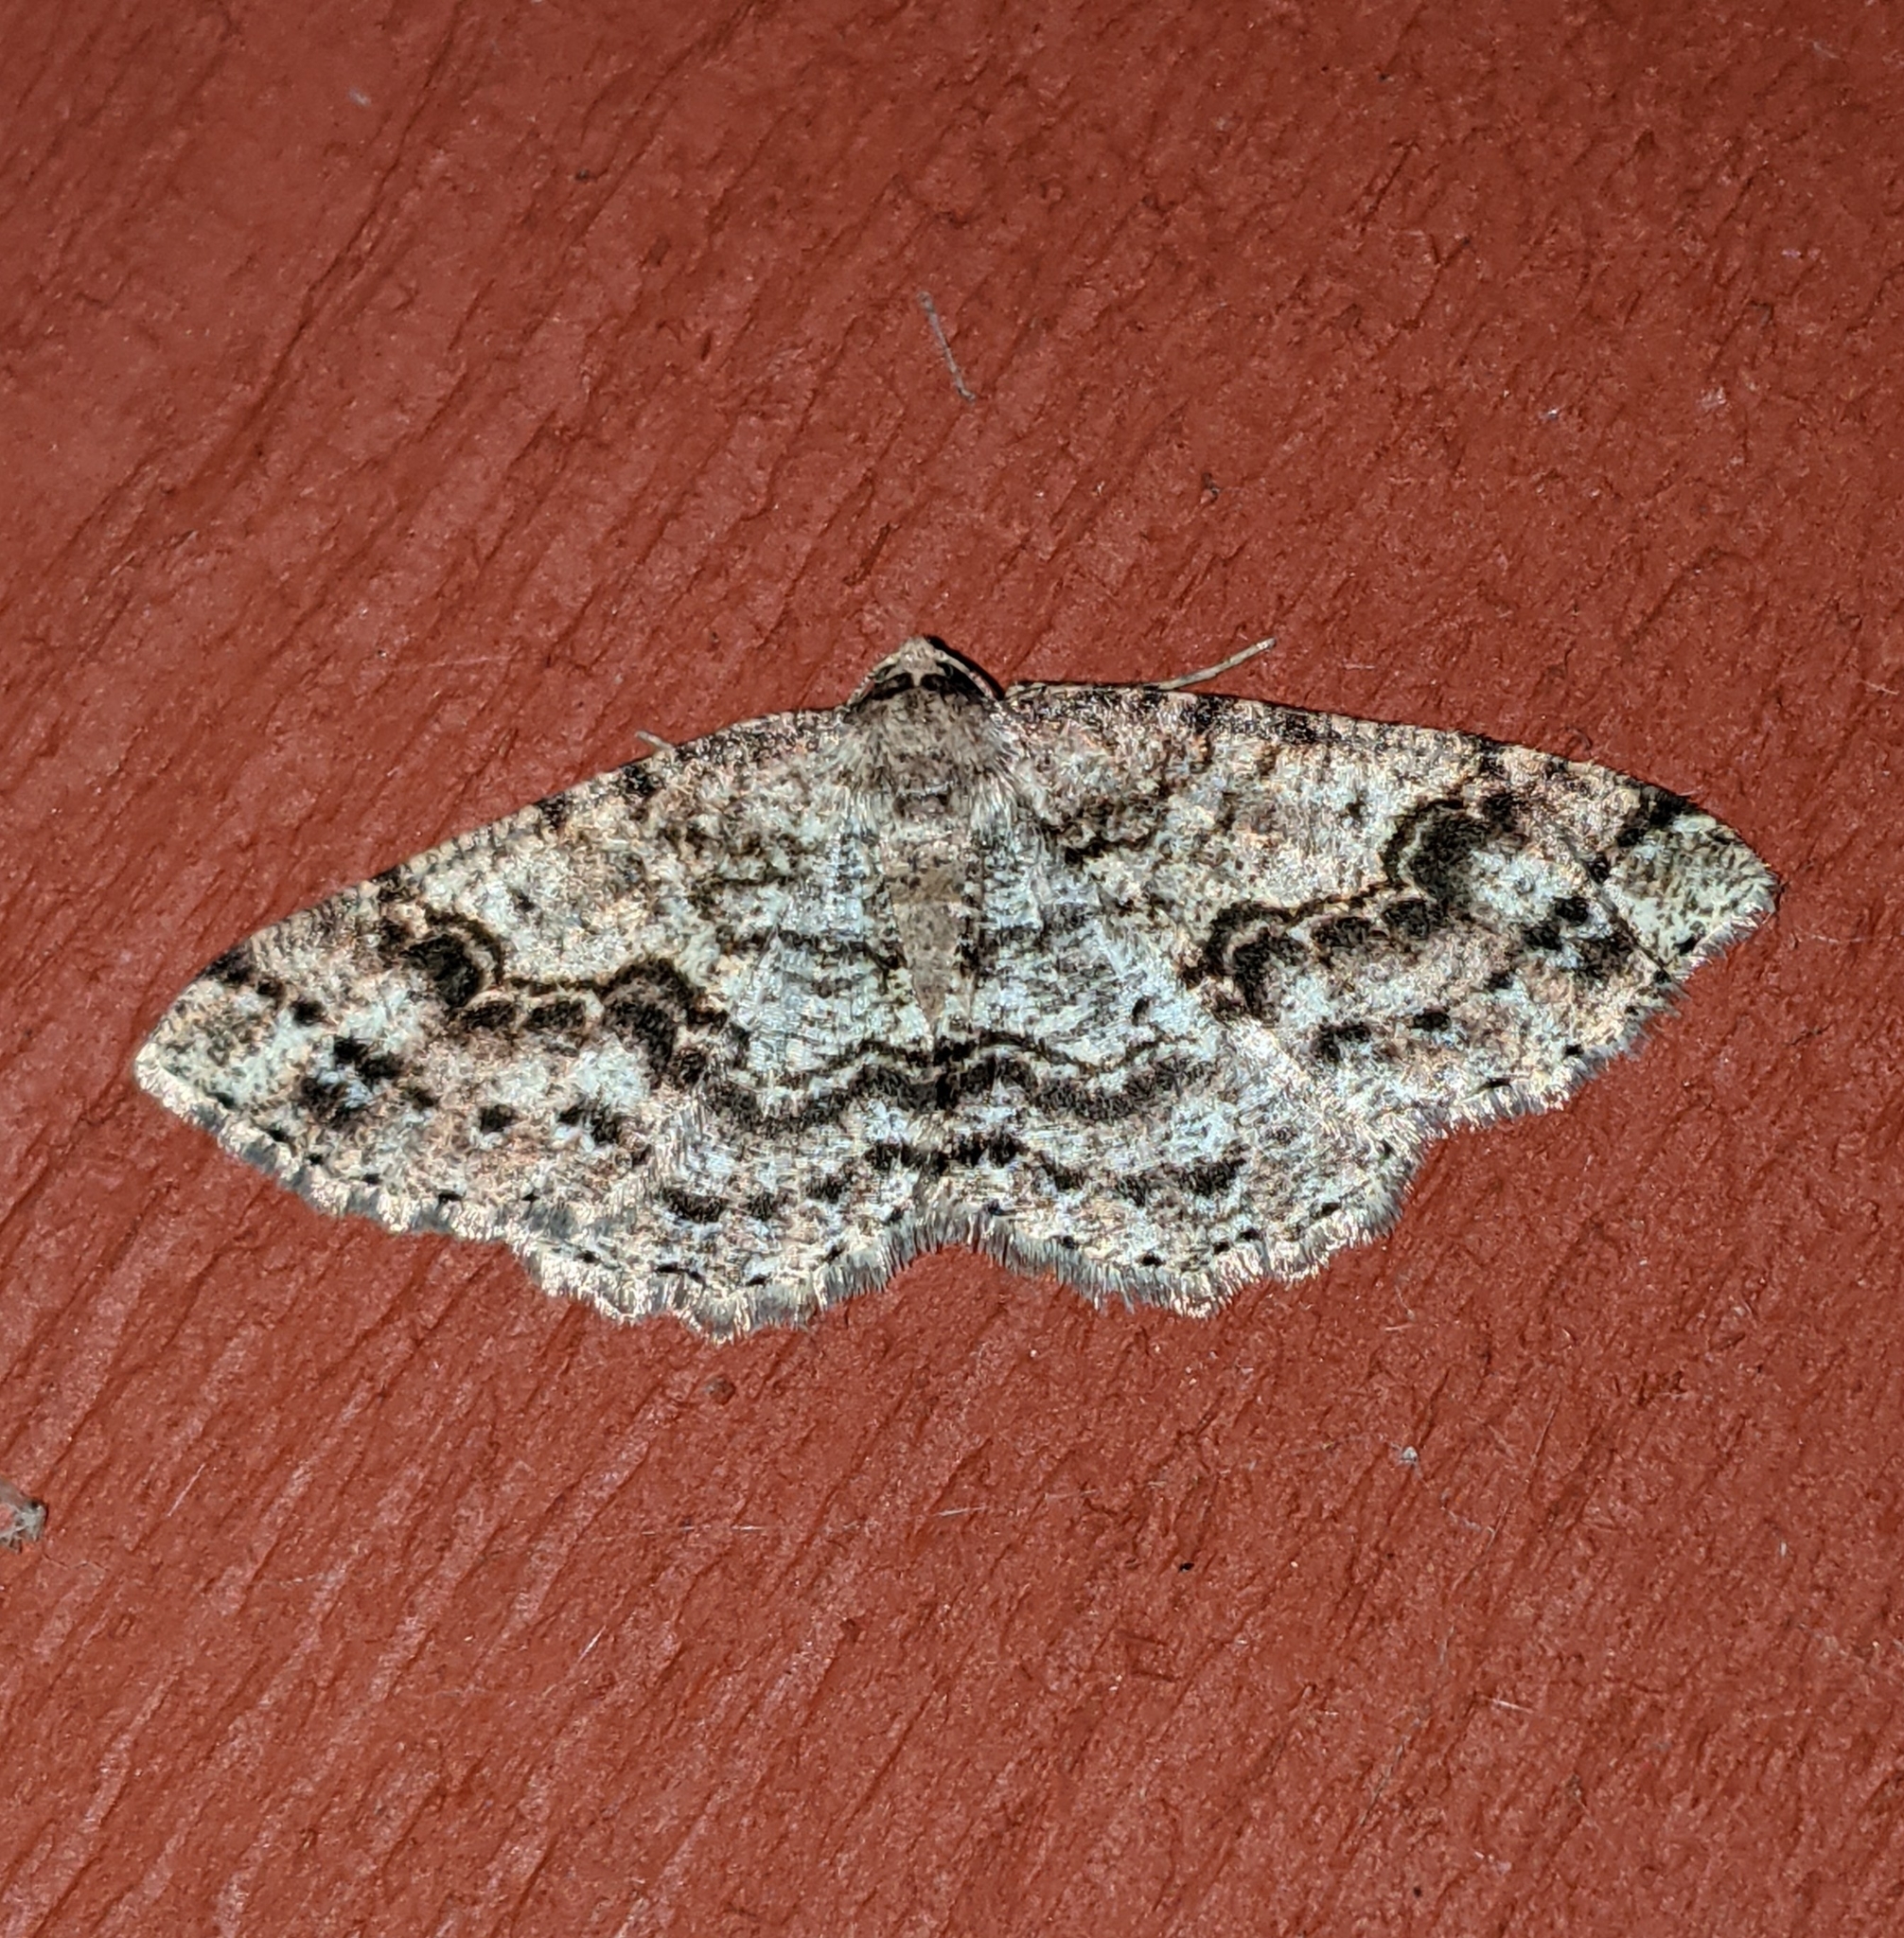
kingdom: Animalia
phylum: Arthropoda
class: Insecta
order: Lepidoptera
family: Geometridae
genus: Melanolophia
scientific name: Melanolophia imitata
